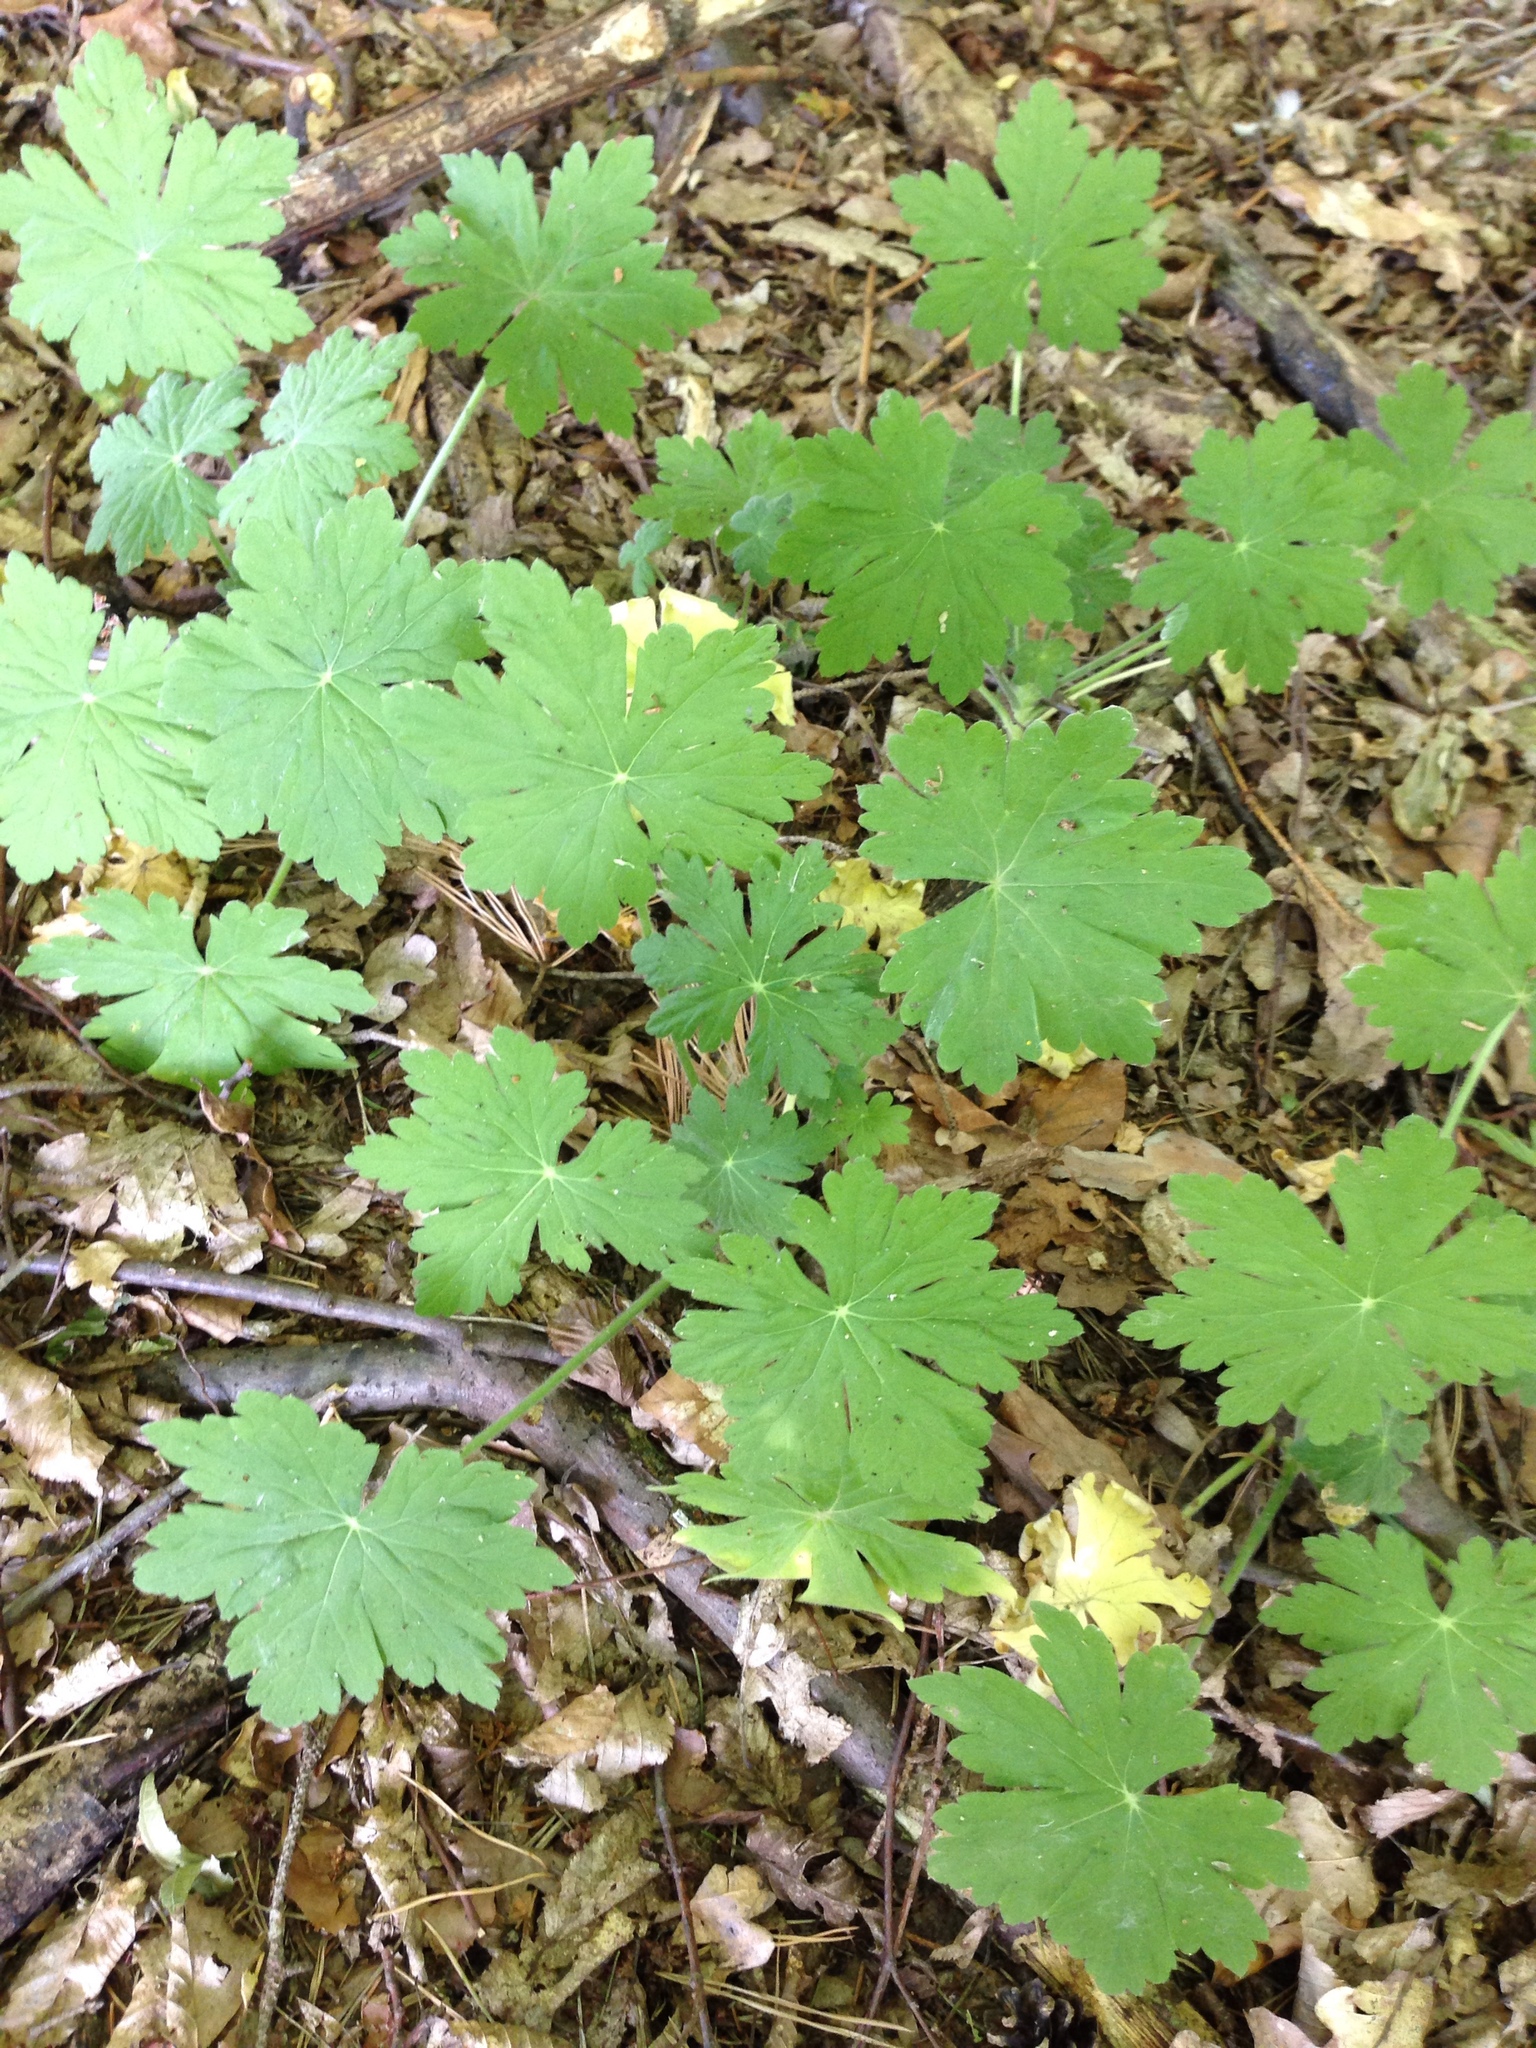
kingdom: Plantae
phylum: Tracheophyta
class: Magnoliopsida
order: Geraniales
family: Geraniaceae
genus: Geranium
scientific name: Geranium macrorrhizum
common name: Rock crane's-bill
